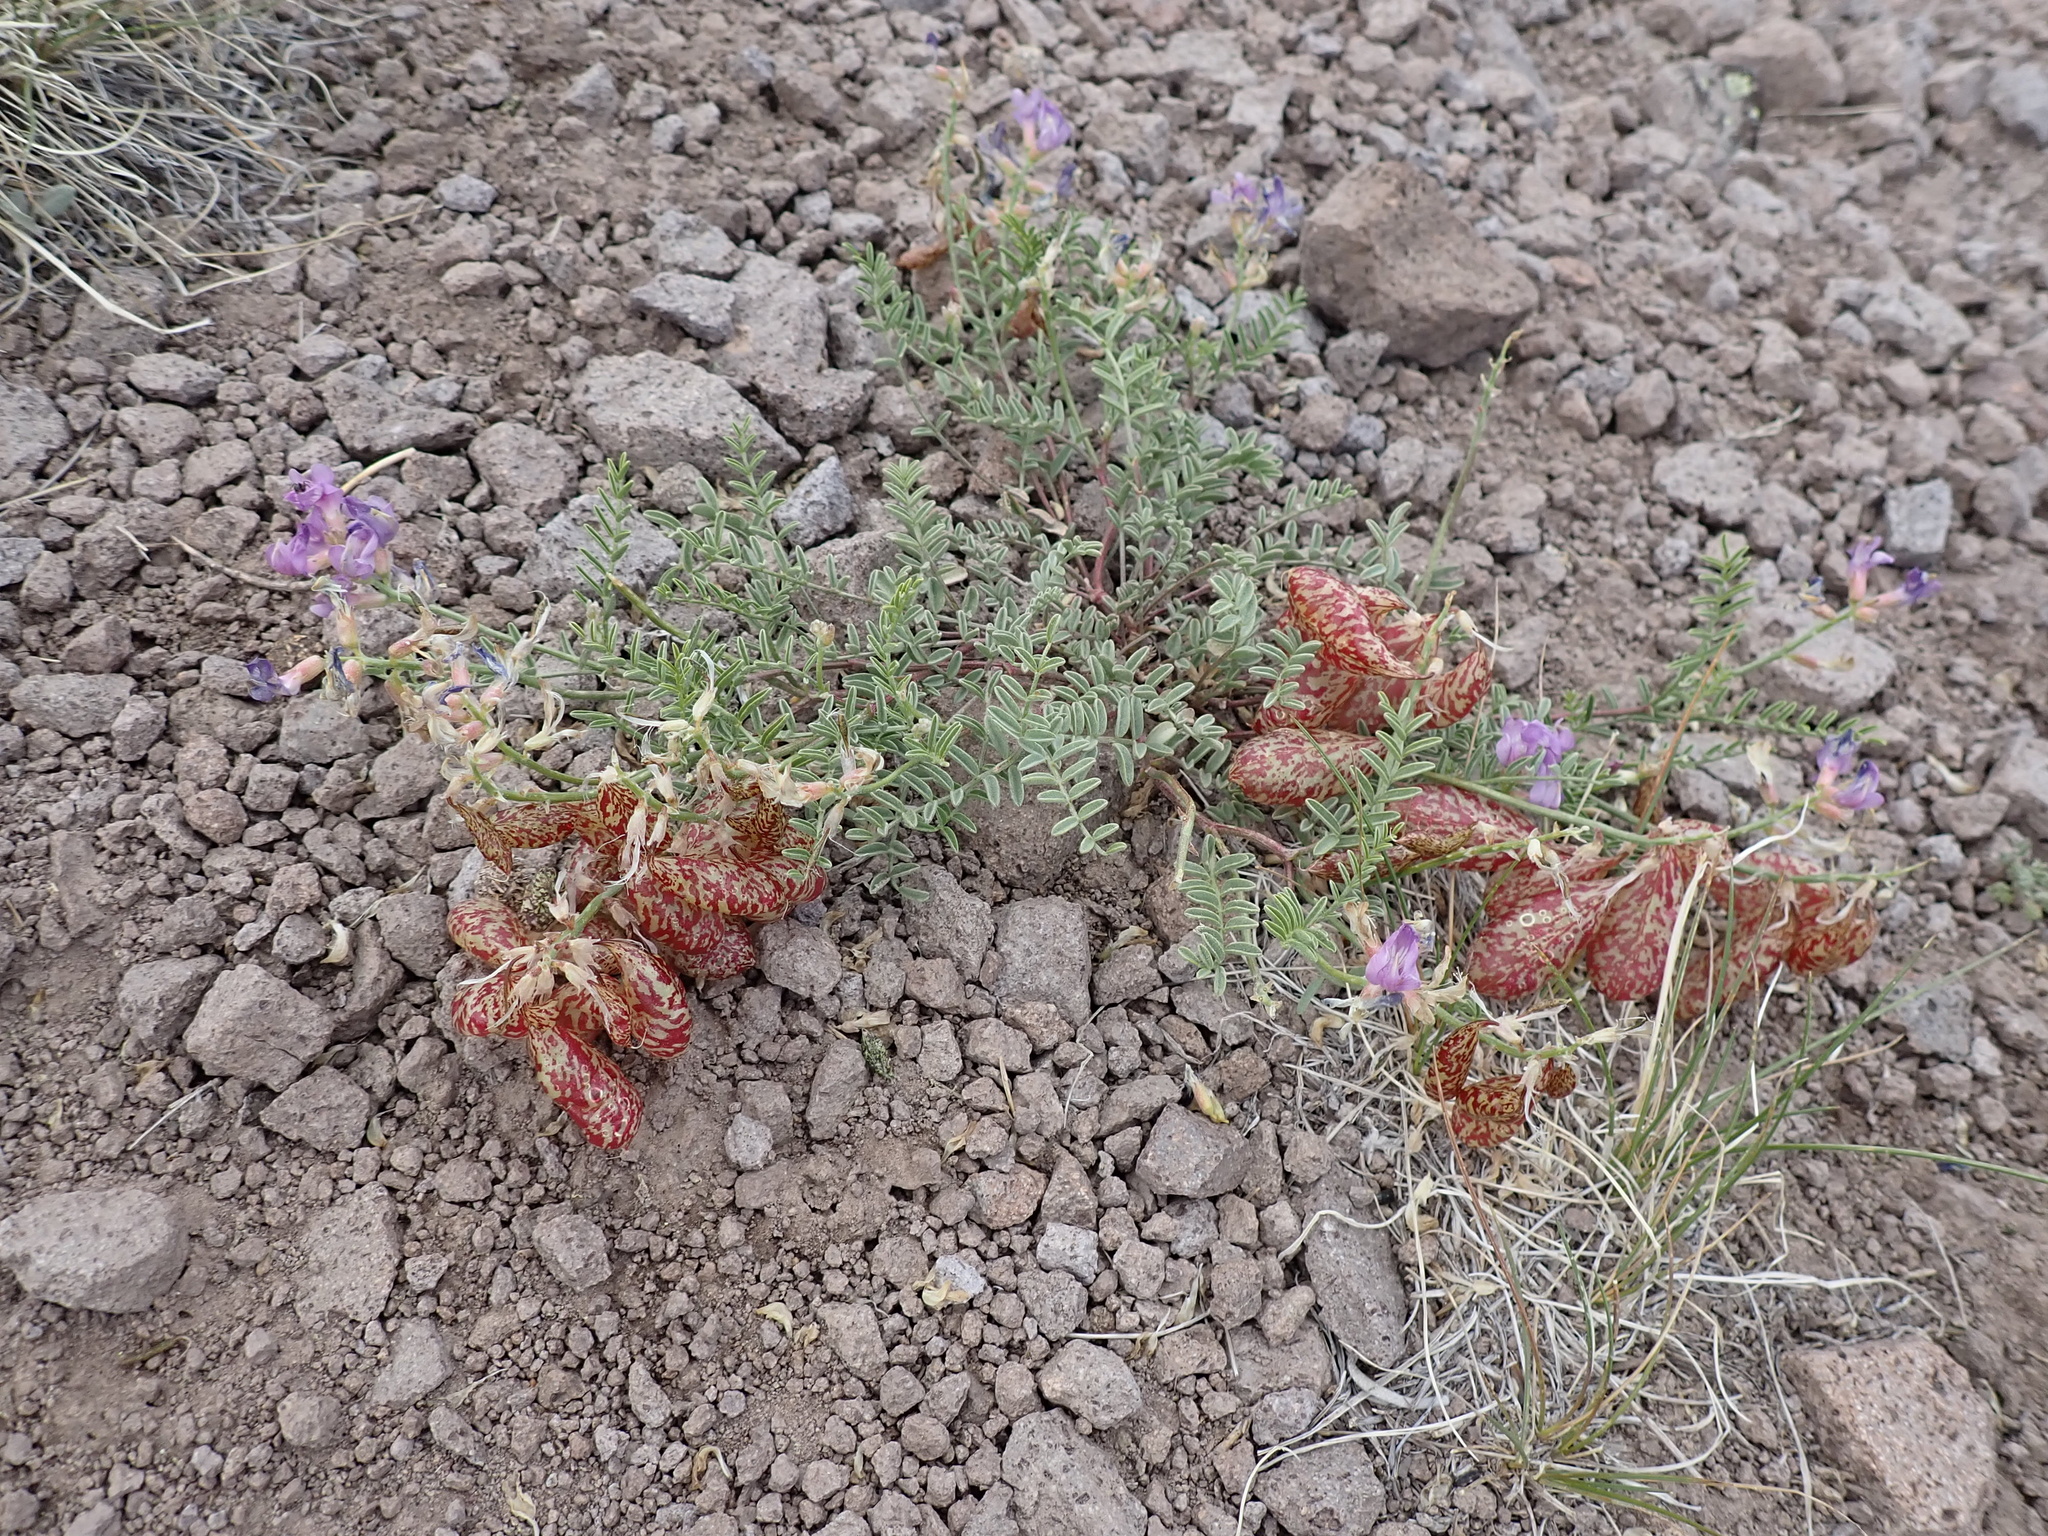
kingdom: Plantae
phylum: Tracheophyta
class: Magnoliopsida
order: Fabales
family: Fabaceae
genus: Astragalus
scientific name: Astragalus whitneyi
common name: Balloonpod milkvetch
